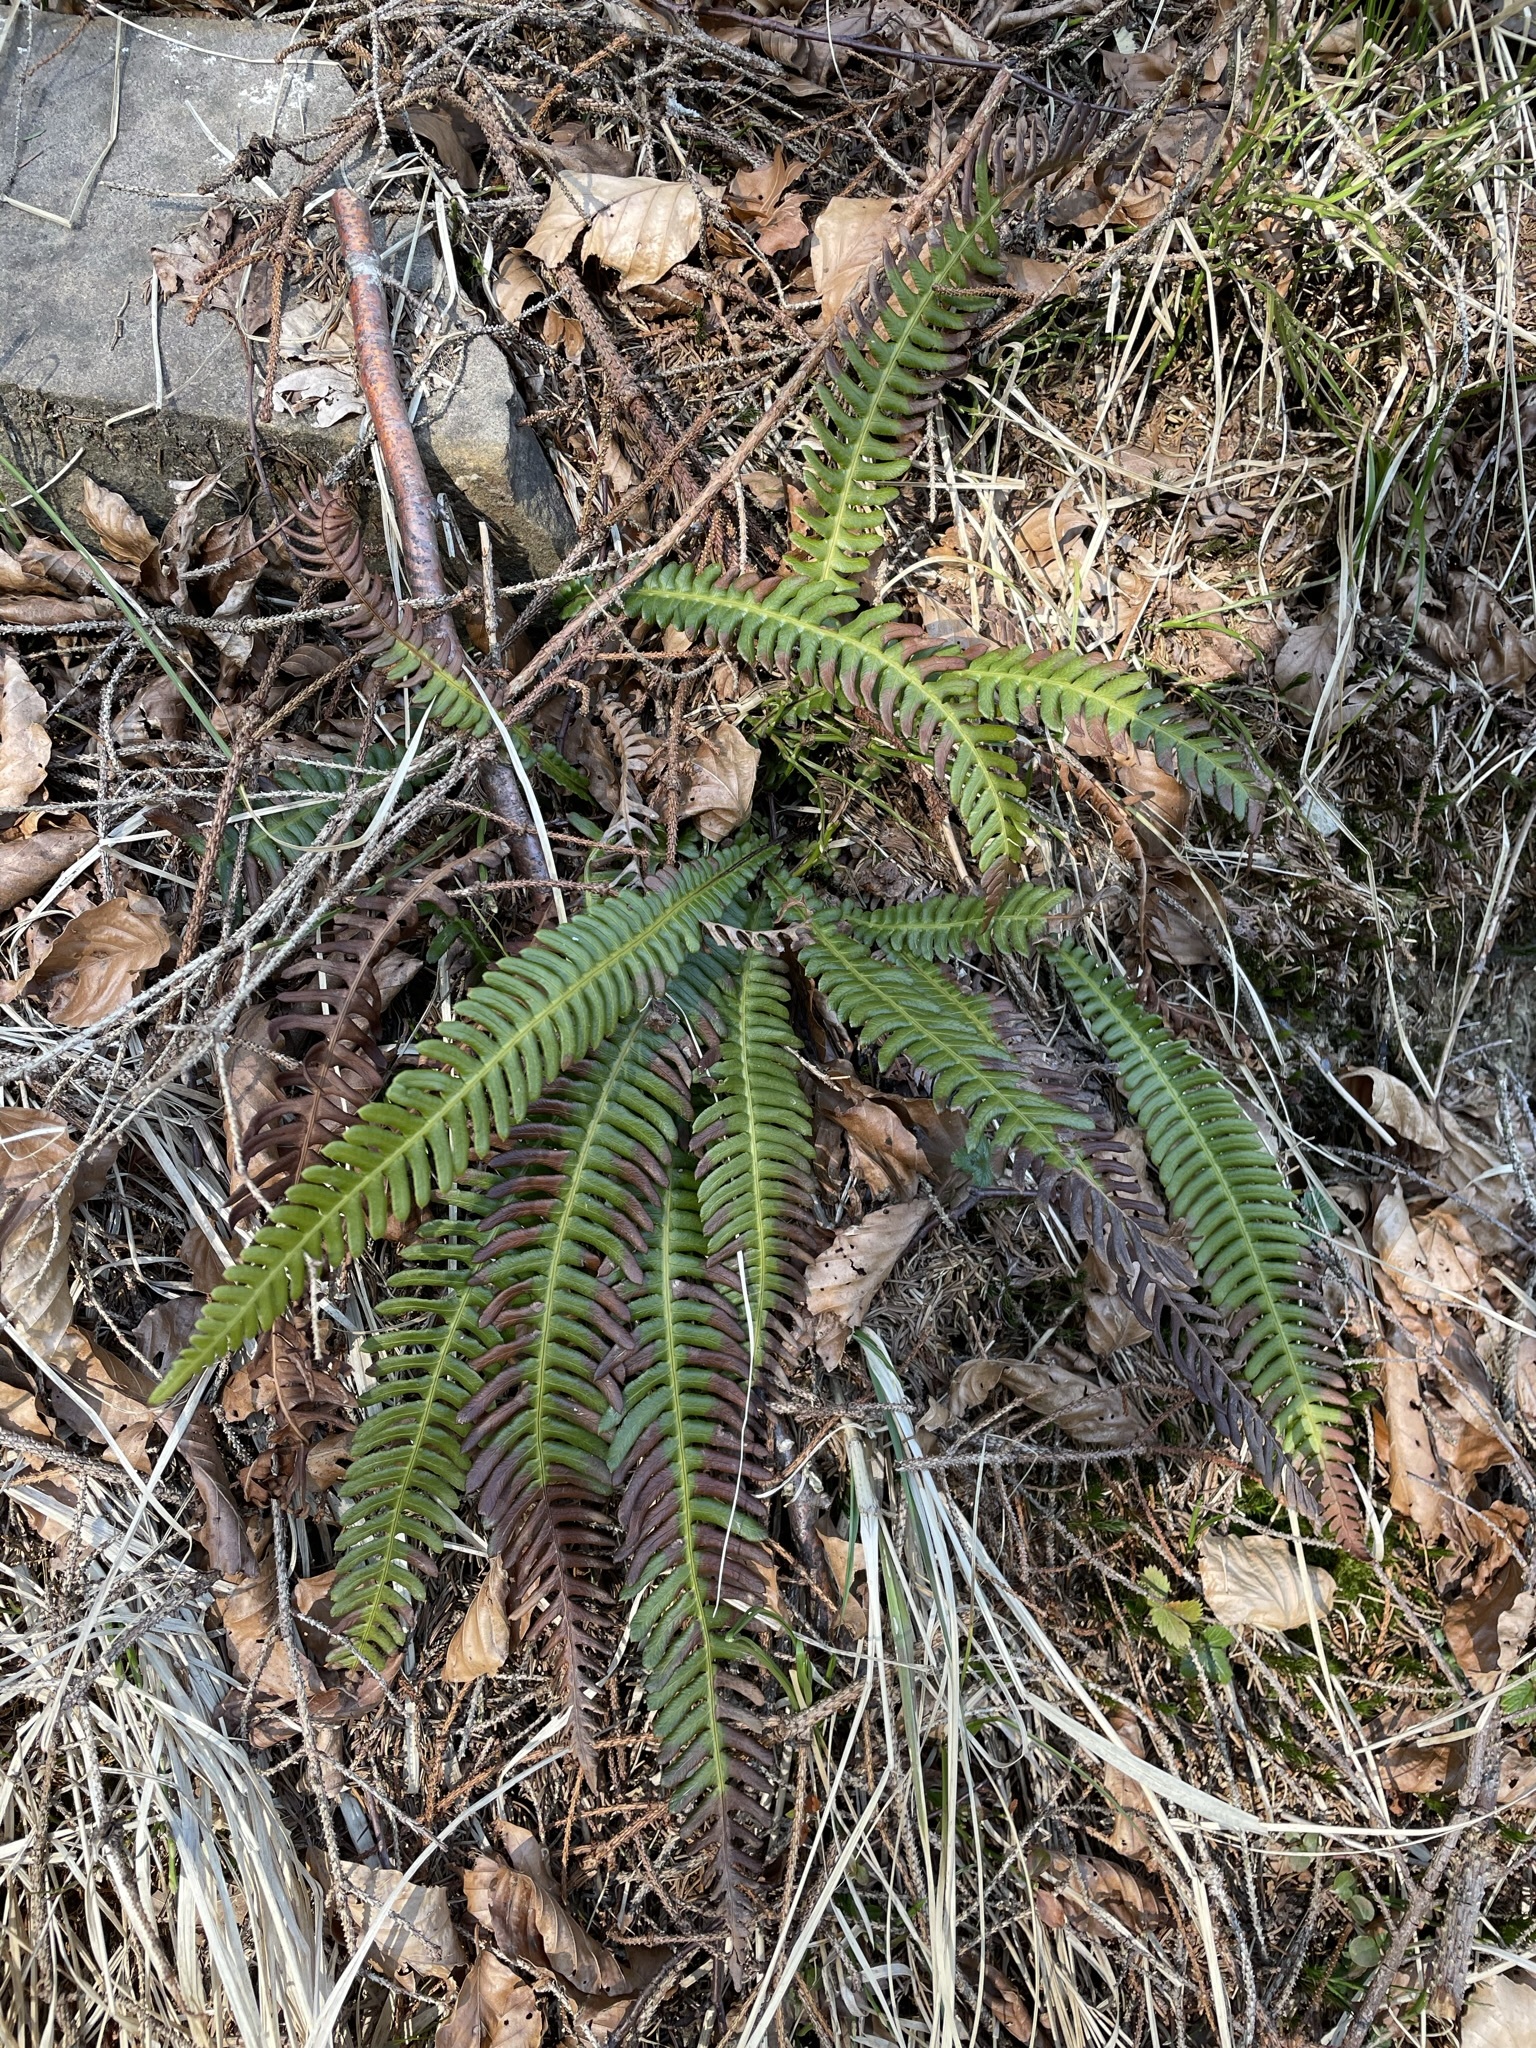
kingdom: Plantae
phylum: Tracheophyta
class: Polypodiopsida
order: Polypodiales
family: Blechnaceae
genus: Struthiopteris
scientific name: Struthiopteris spicant
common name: Deer fern
